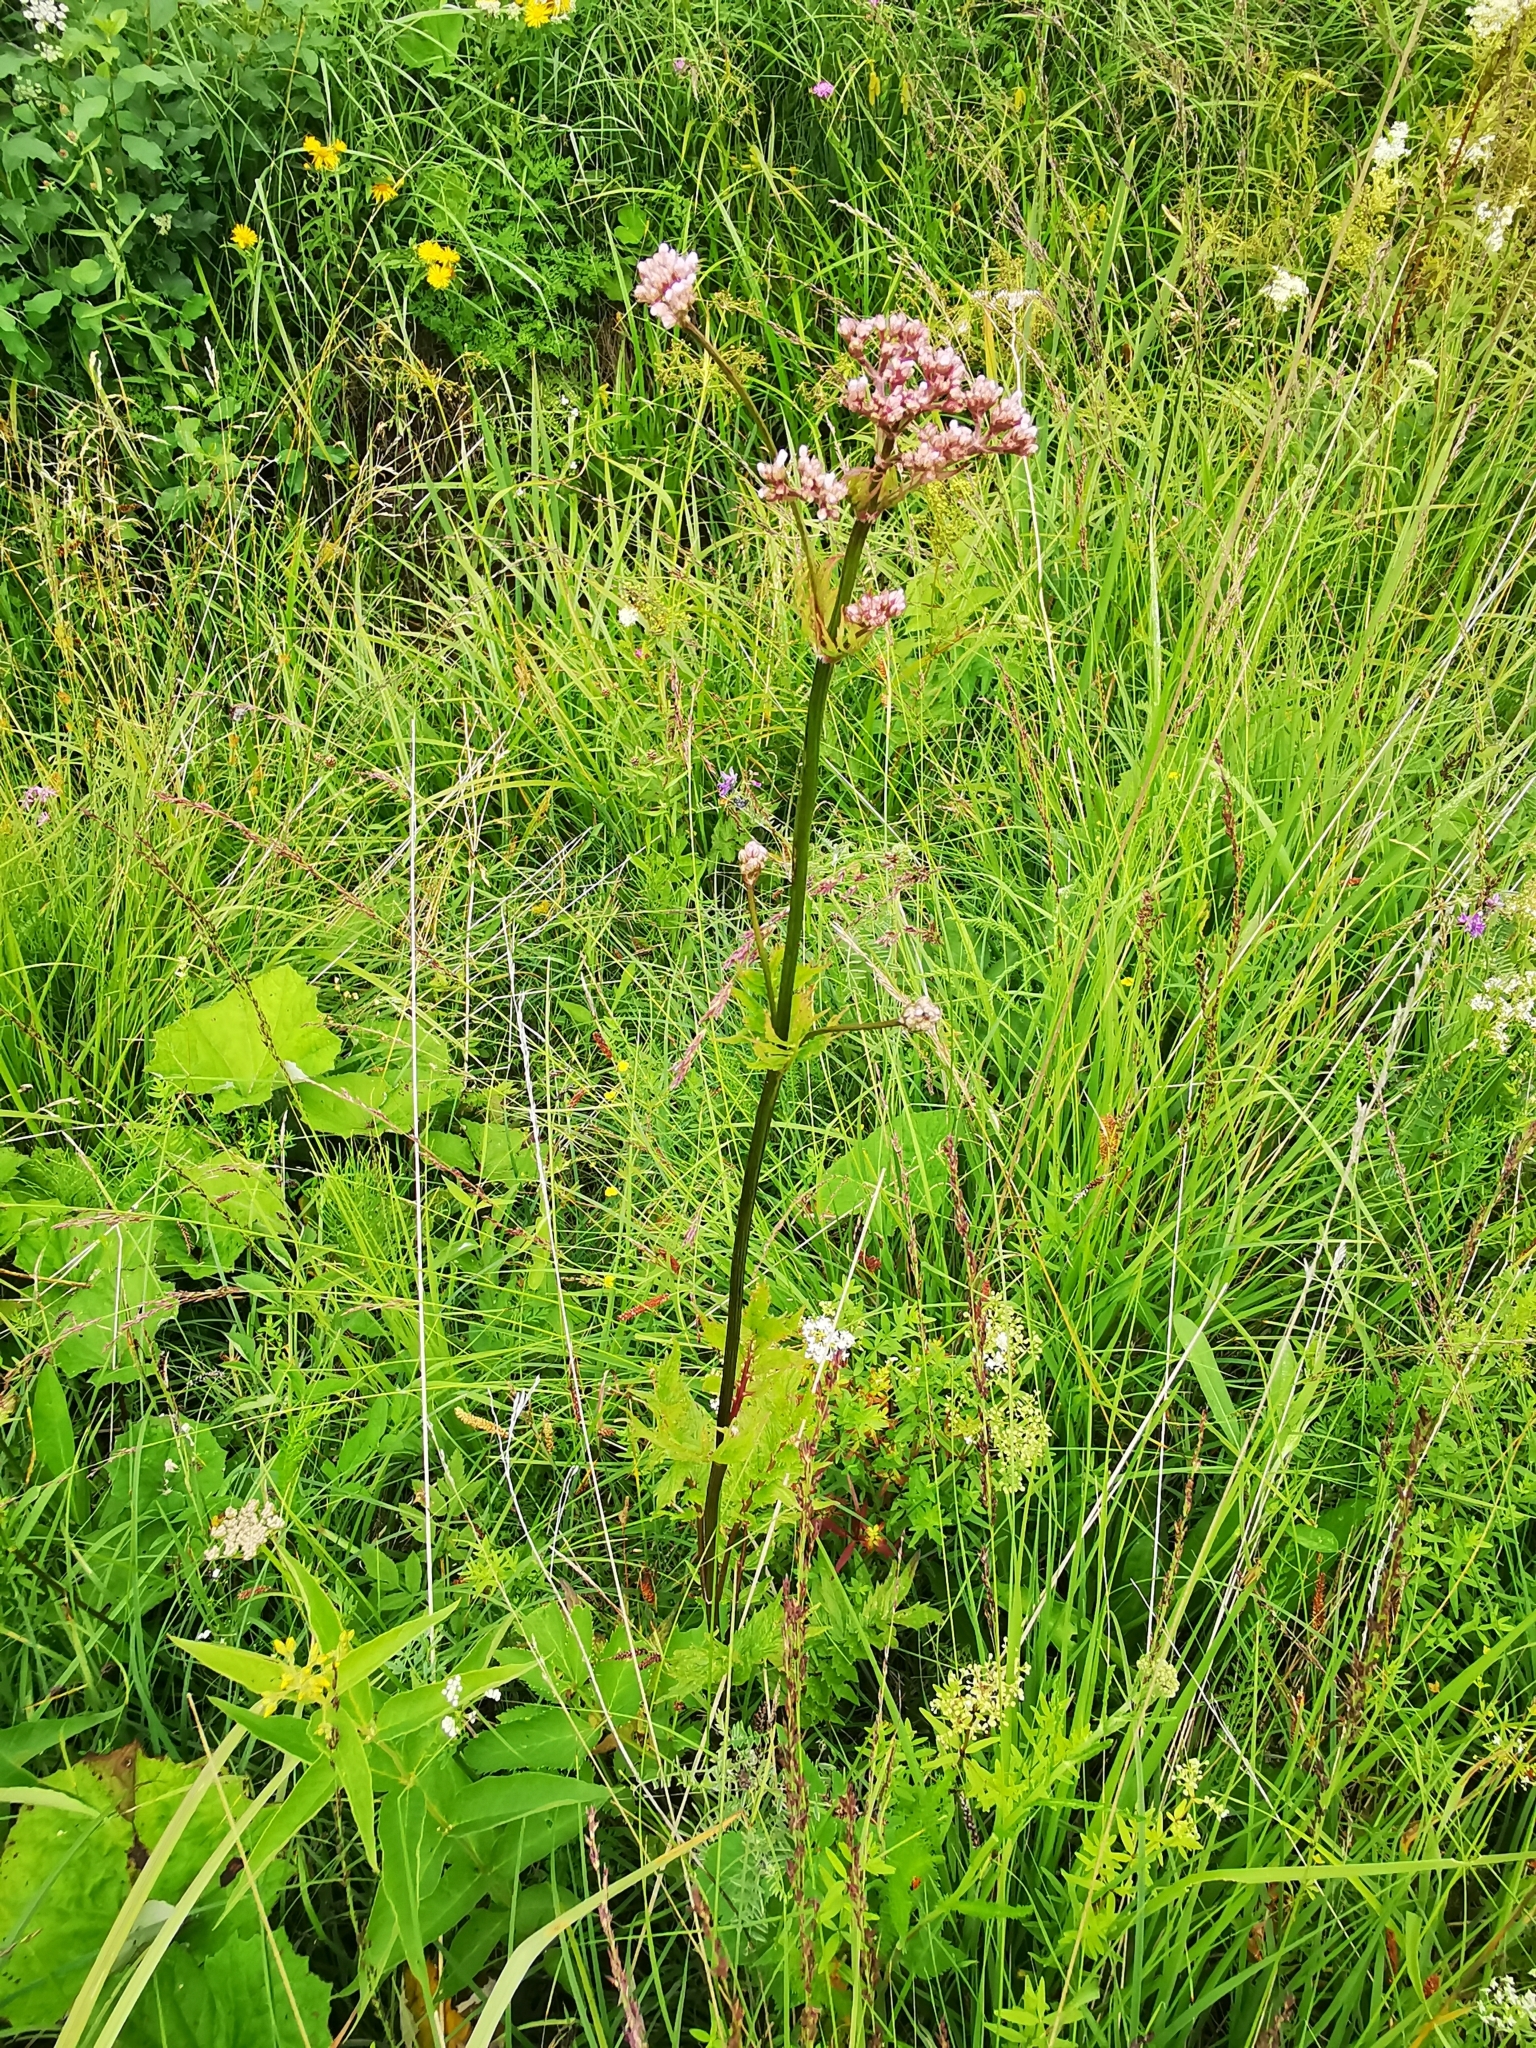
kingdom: Plantae
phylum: Tracheophyta
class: Magnoliopsida
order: Dipsacales
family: Caprifoliaceae
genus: Valeriana
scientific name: Valeriana officinalis
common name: Common valerian
